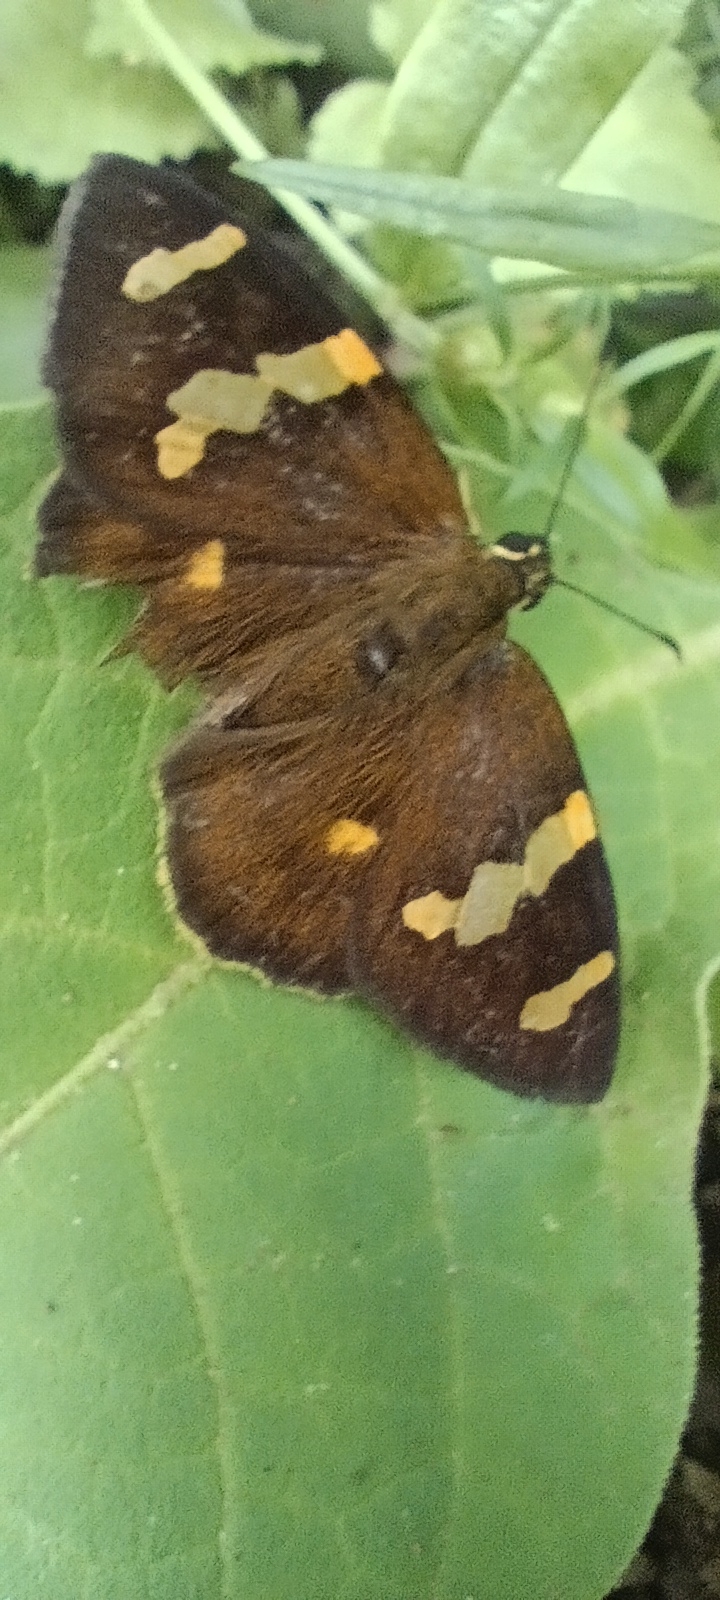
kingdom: Animalia
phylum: Arthropoda
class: Insecta
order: Lepidoptera
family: Hesperiidae
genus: Celaenorrhinus
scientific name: Celaenorrhinus mokeezi
